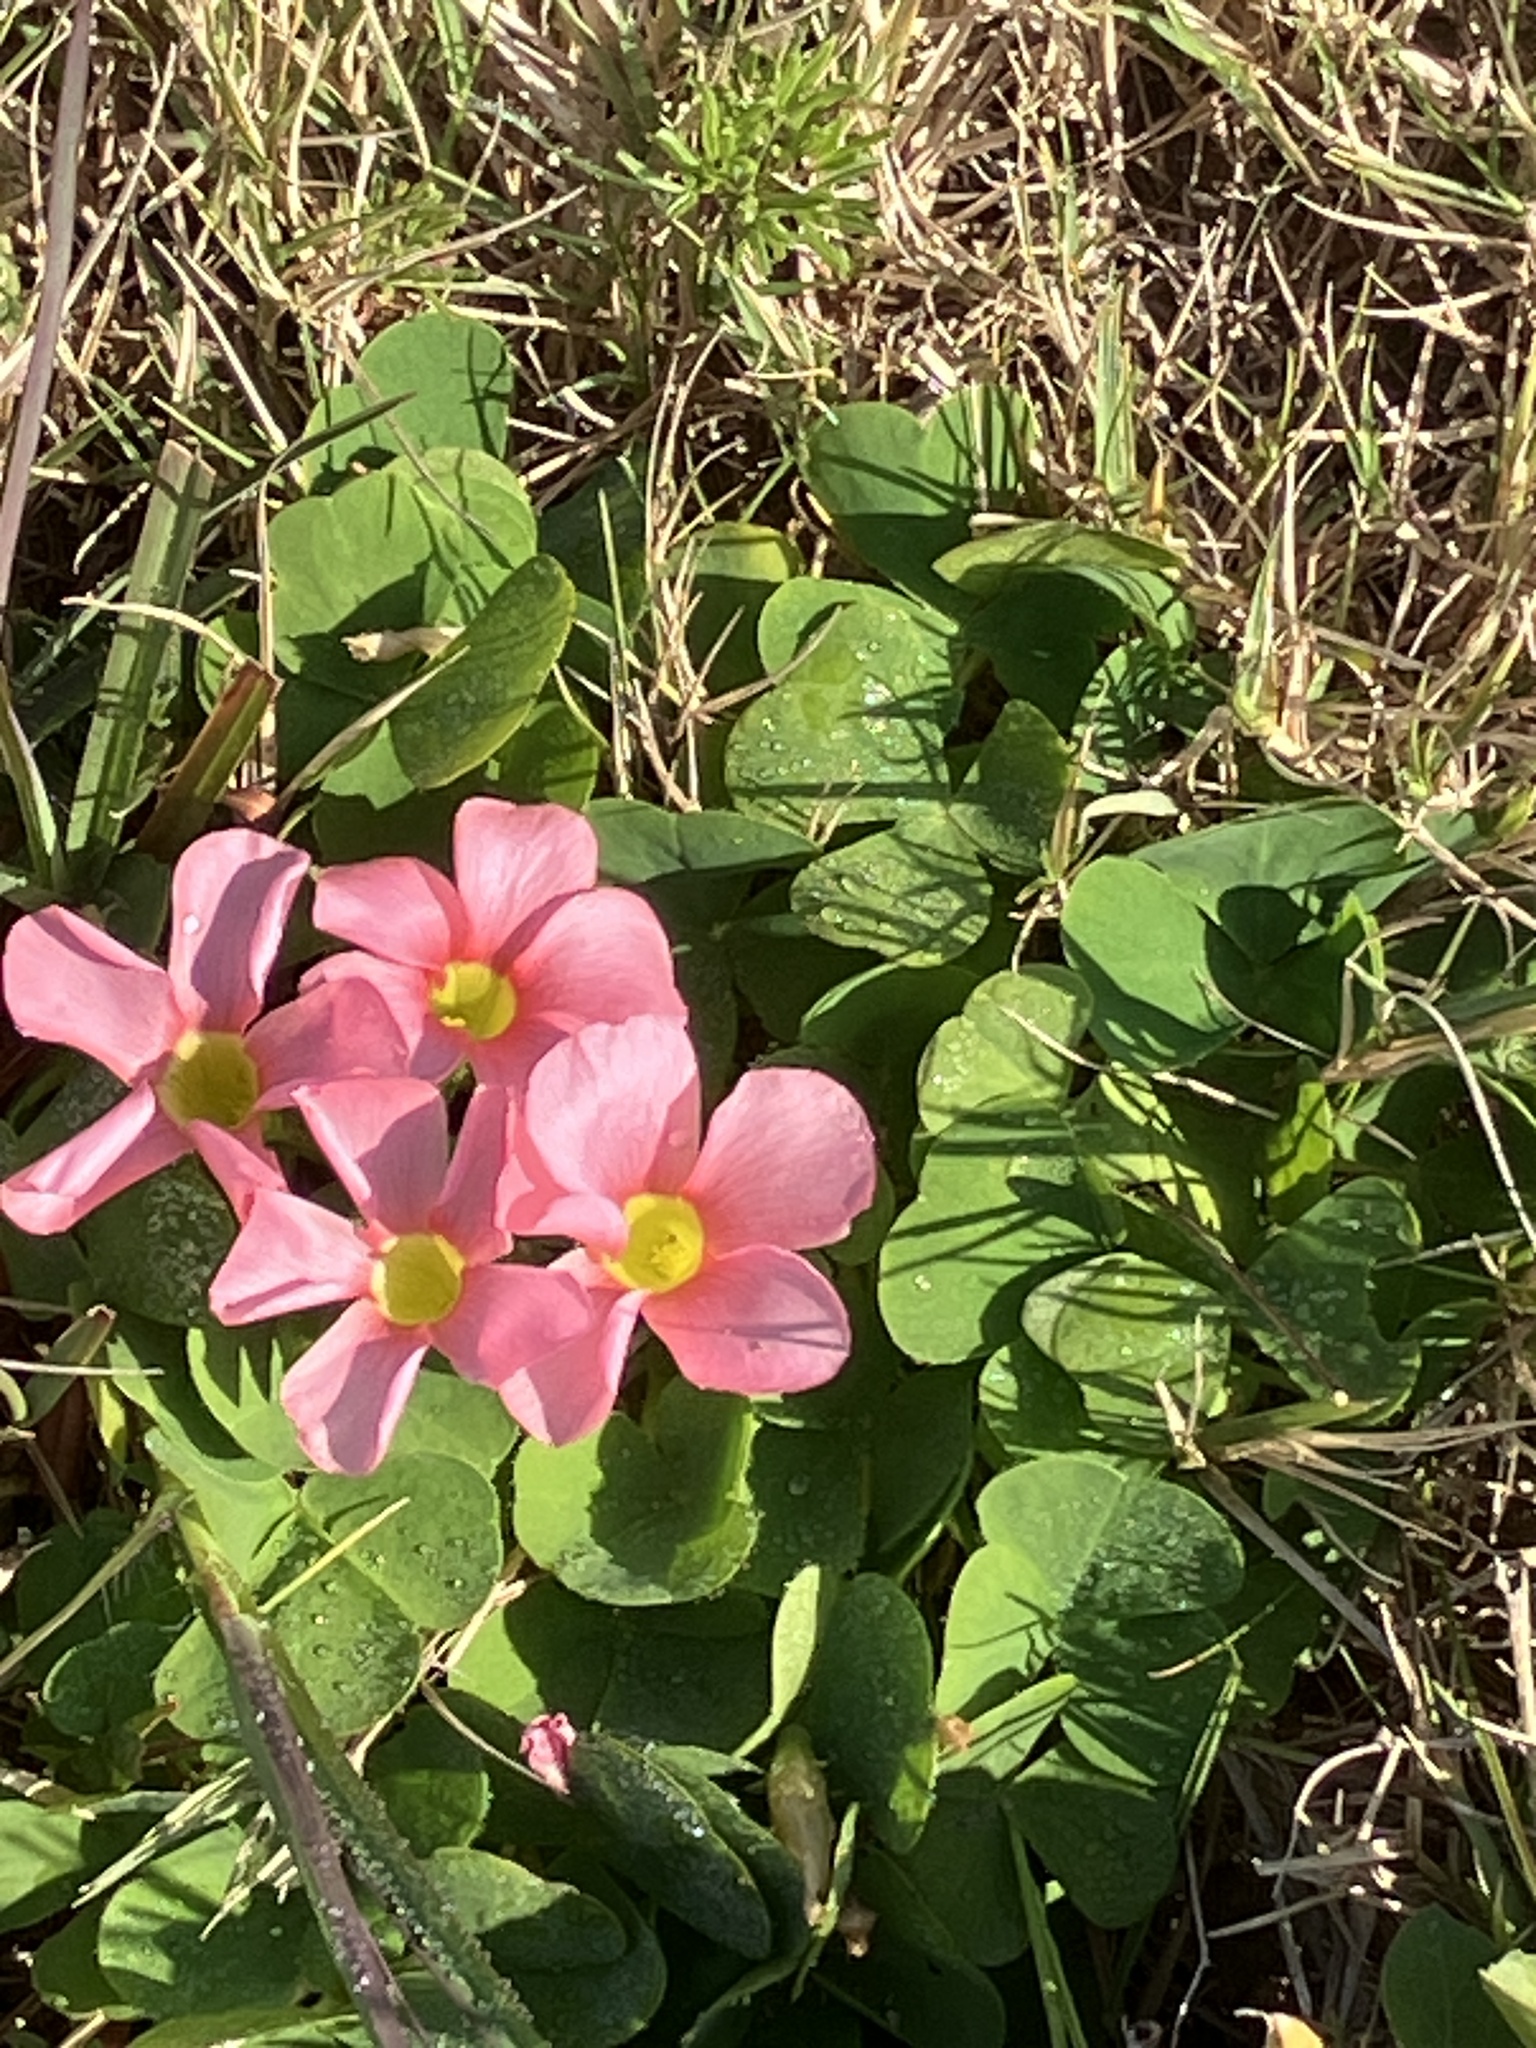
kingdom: Plantae
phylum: Tracheophyta
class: Magnoliopsida
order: Oxalidales
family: Oxalidaceae
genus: Oxalis
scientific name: Oxalis purpurea
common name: Purple woodsorrel
